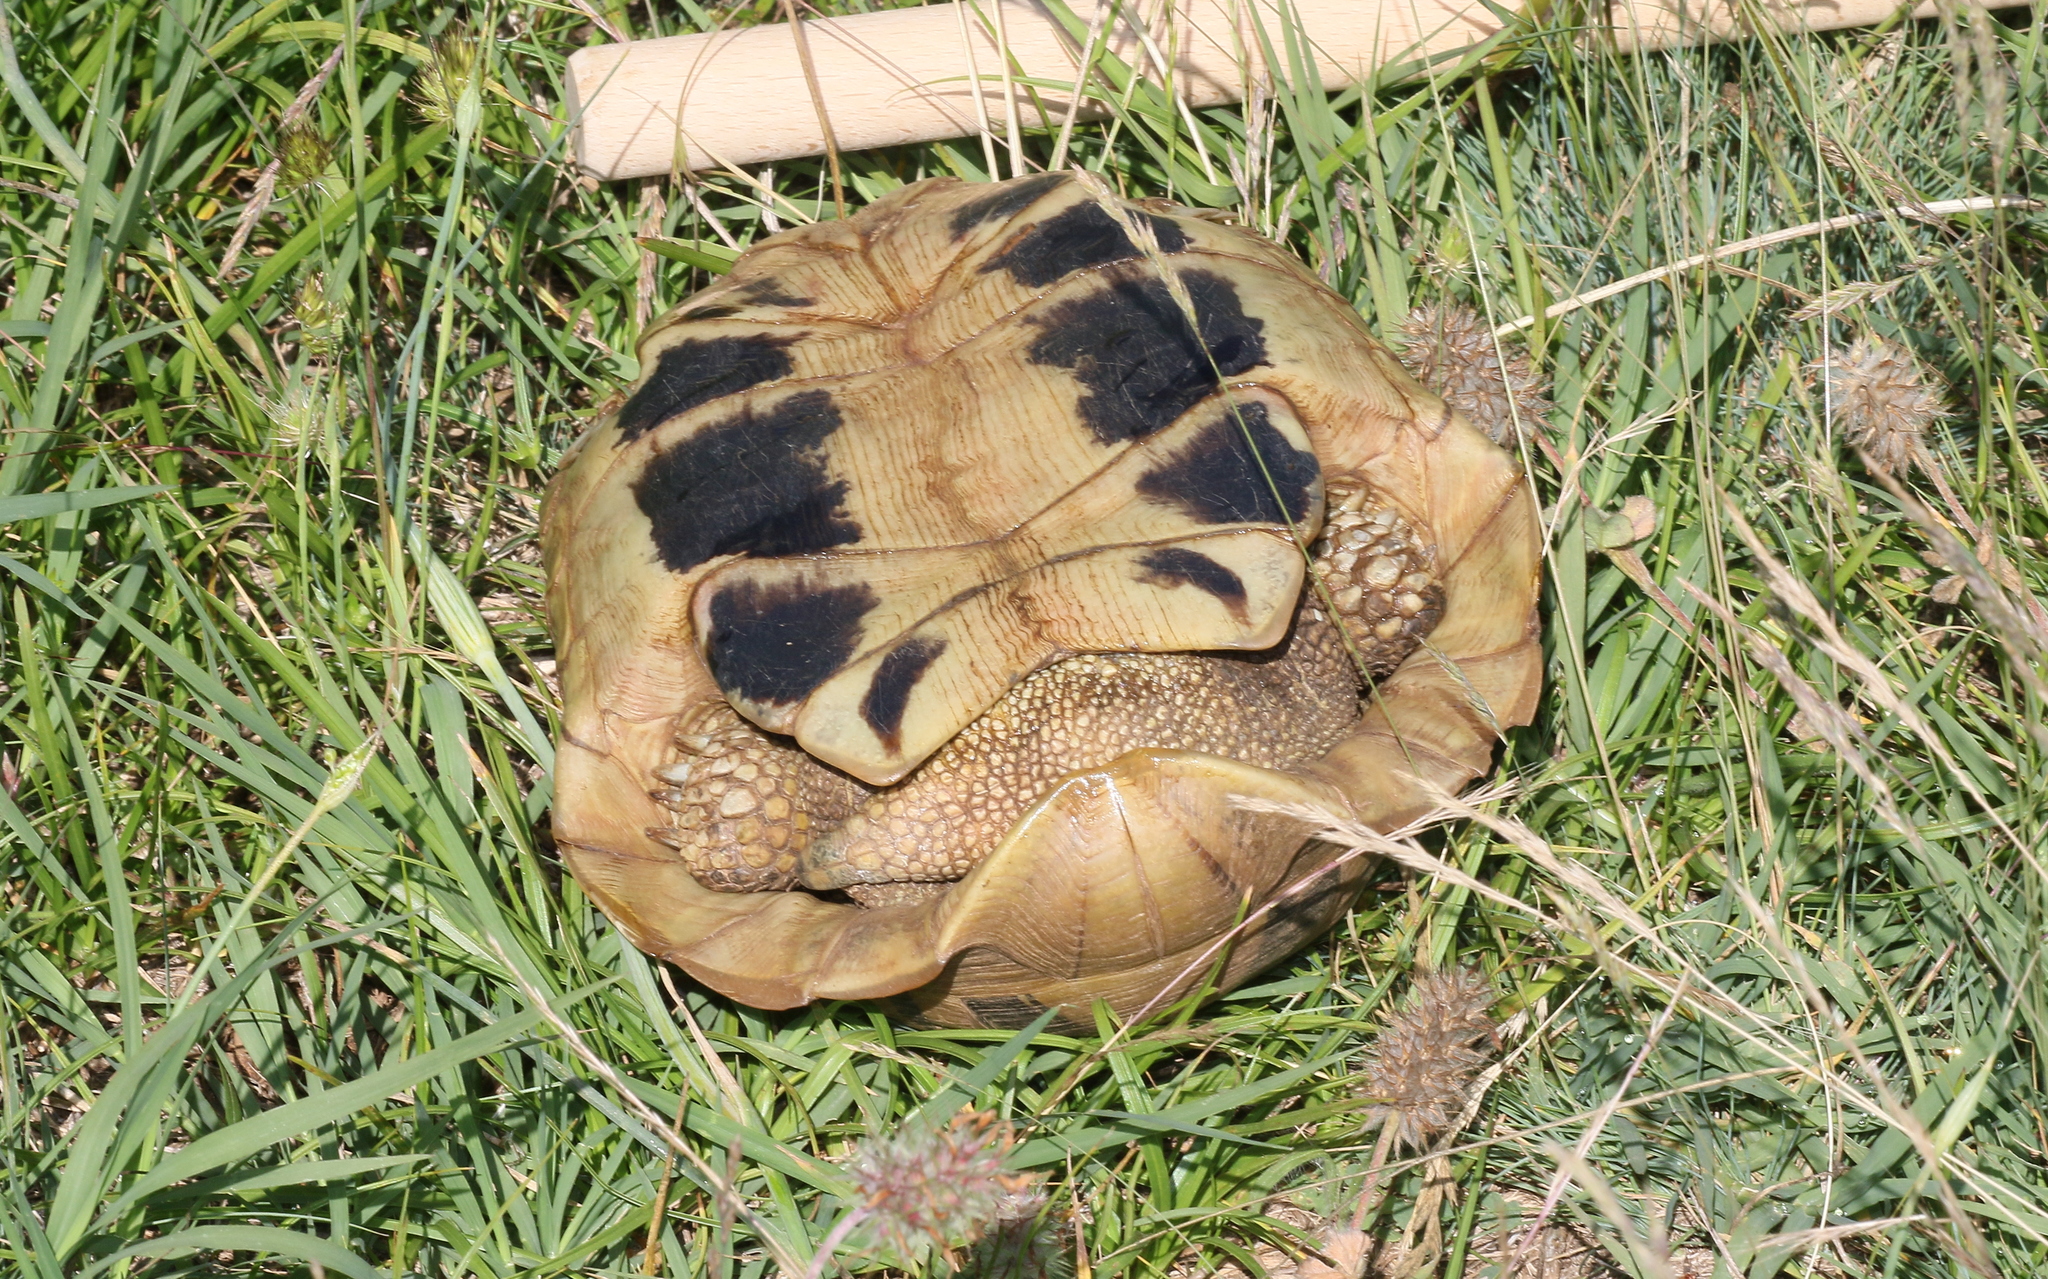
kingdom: Animalia
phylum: Chordata
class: Testudines
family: Testudinidae
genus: Testudo
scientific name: Testudo hermanni
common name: Hermann's tortoise
